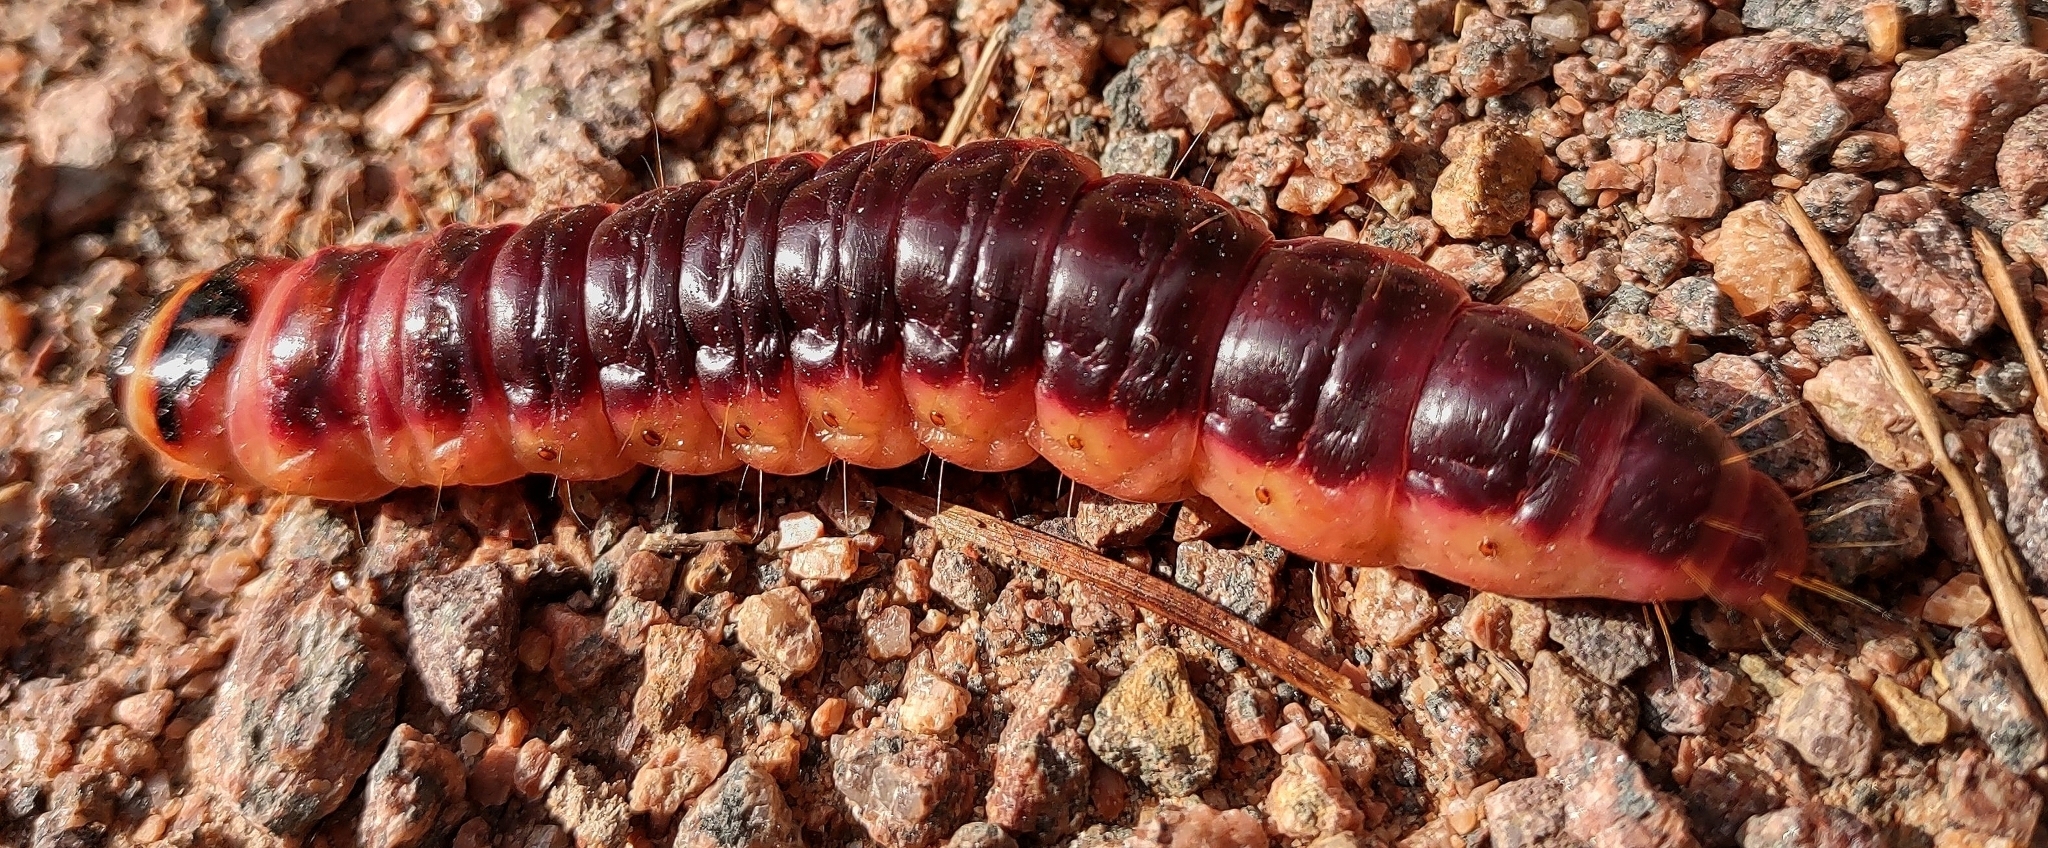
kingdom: Animalia
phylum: Arthropoda
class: Insecta
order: Lepidoptera
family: Cossidae
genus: Cossus
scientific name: Cossus cossus
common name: Goat moth
